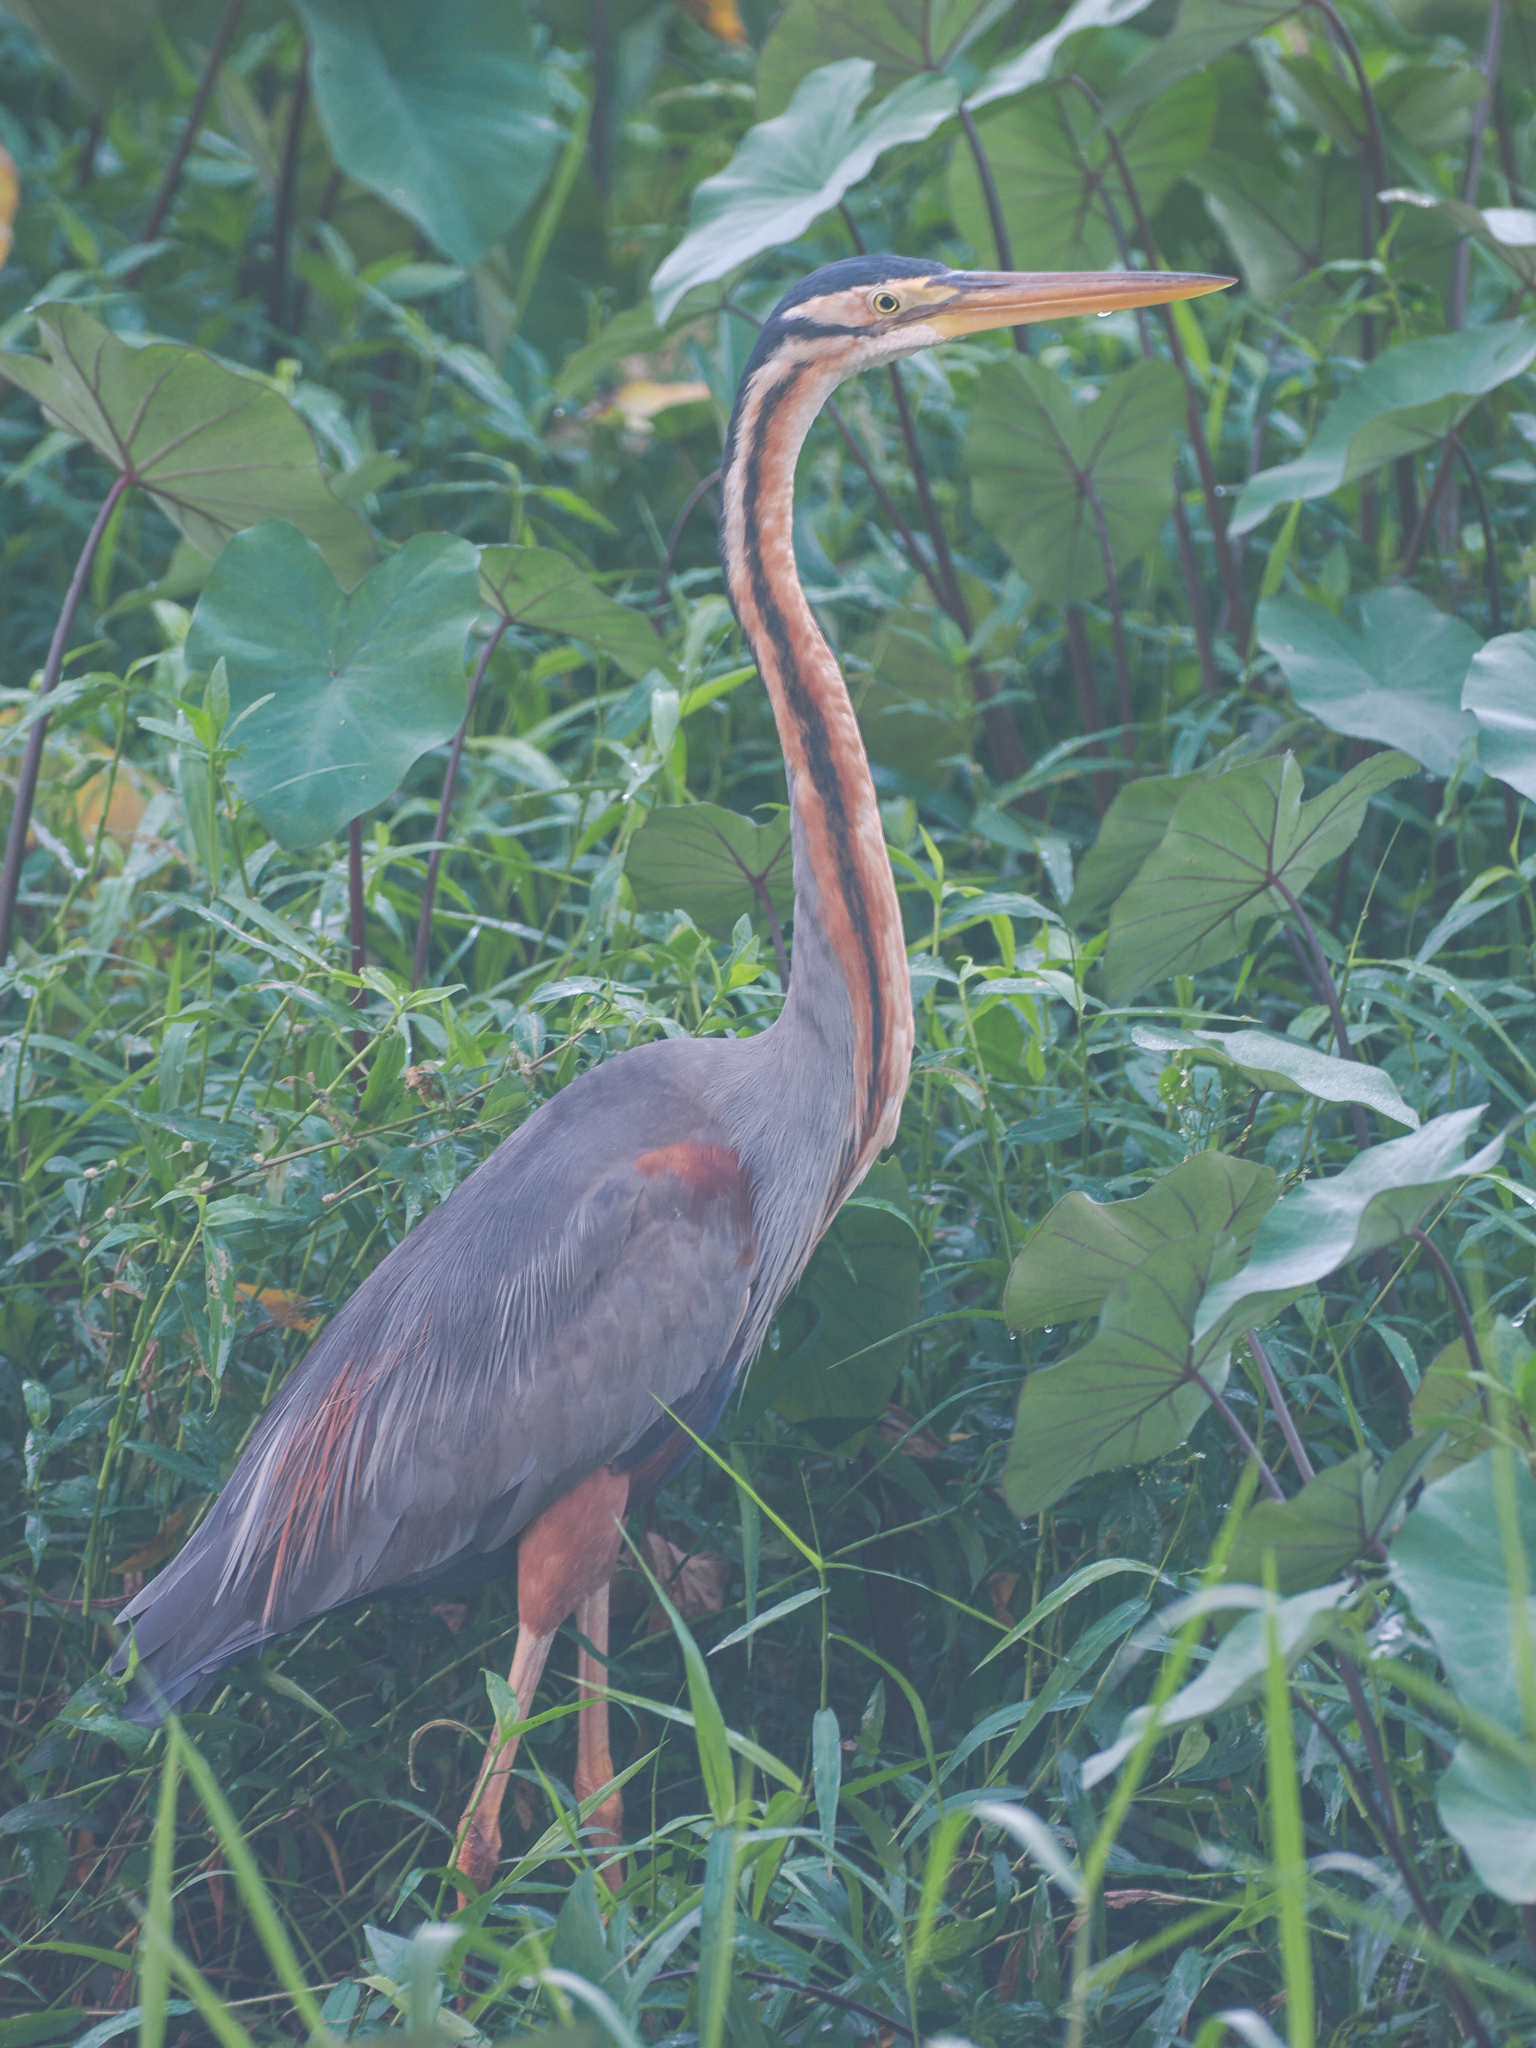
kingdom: Animalia
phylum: Chordata
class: Aves
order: Pelecaniformes
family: Ardeidae
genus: Ardea
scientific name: Ardea purpurea
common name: Purple heron
